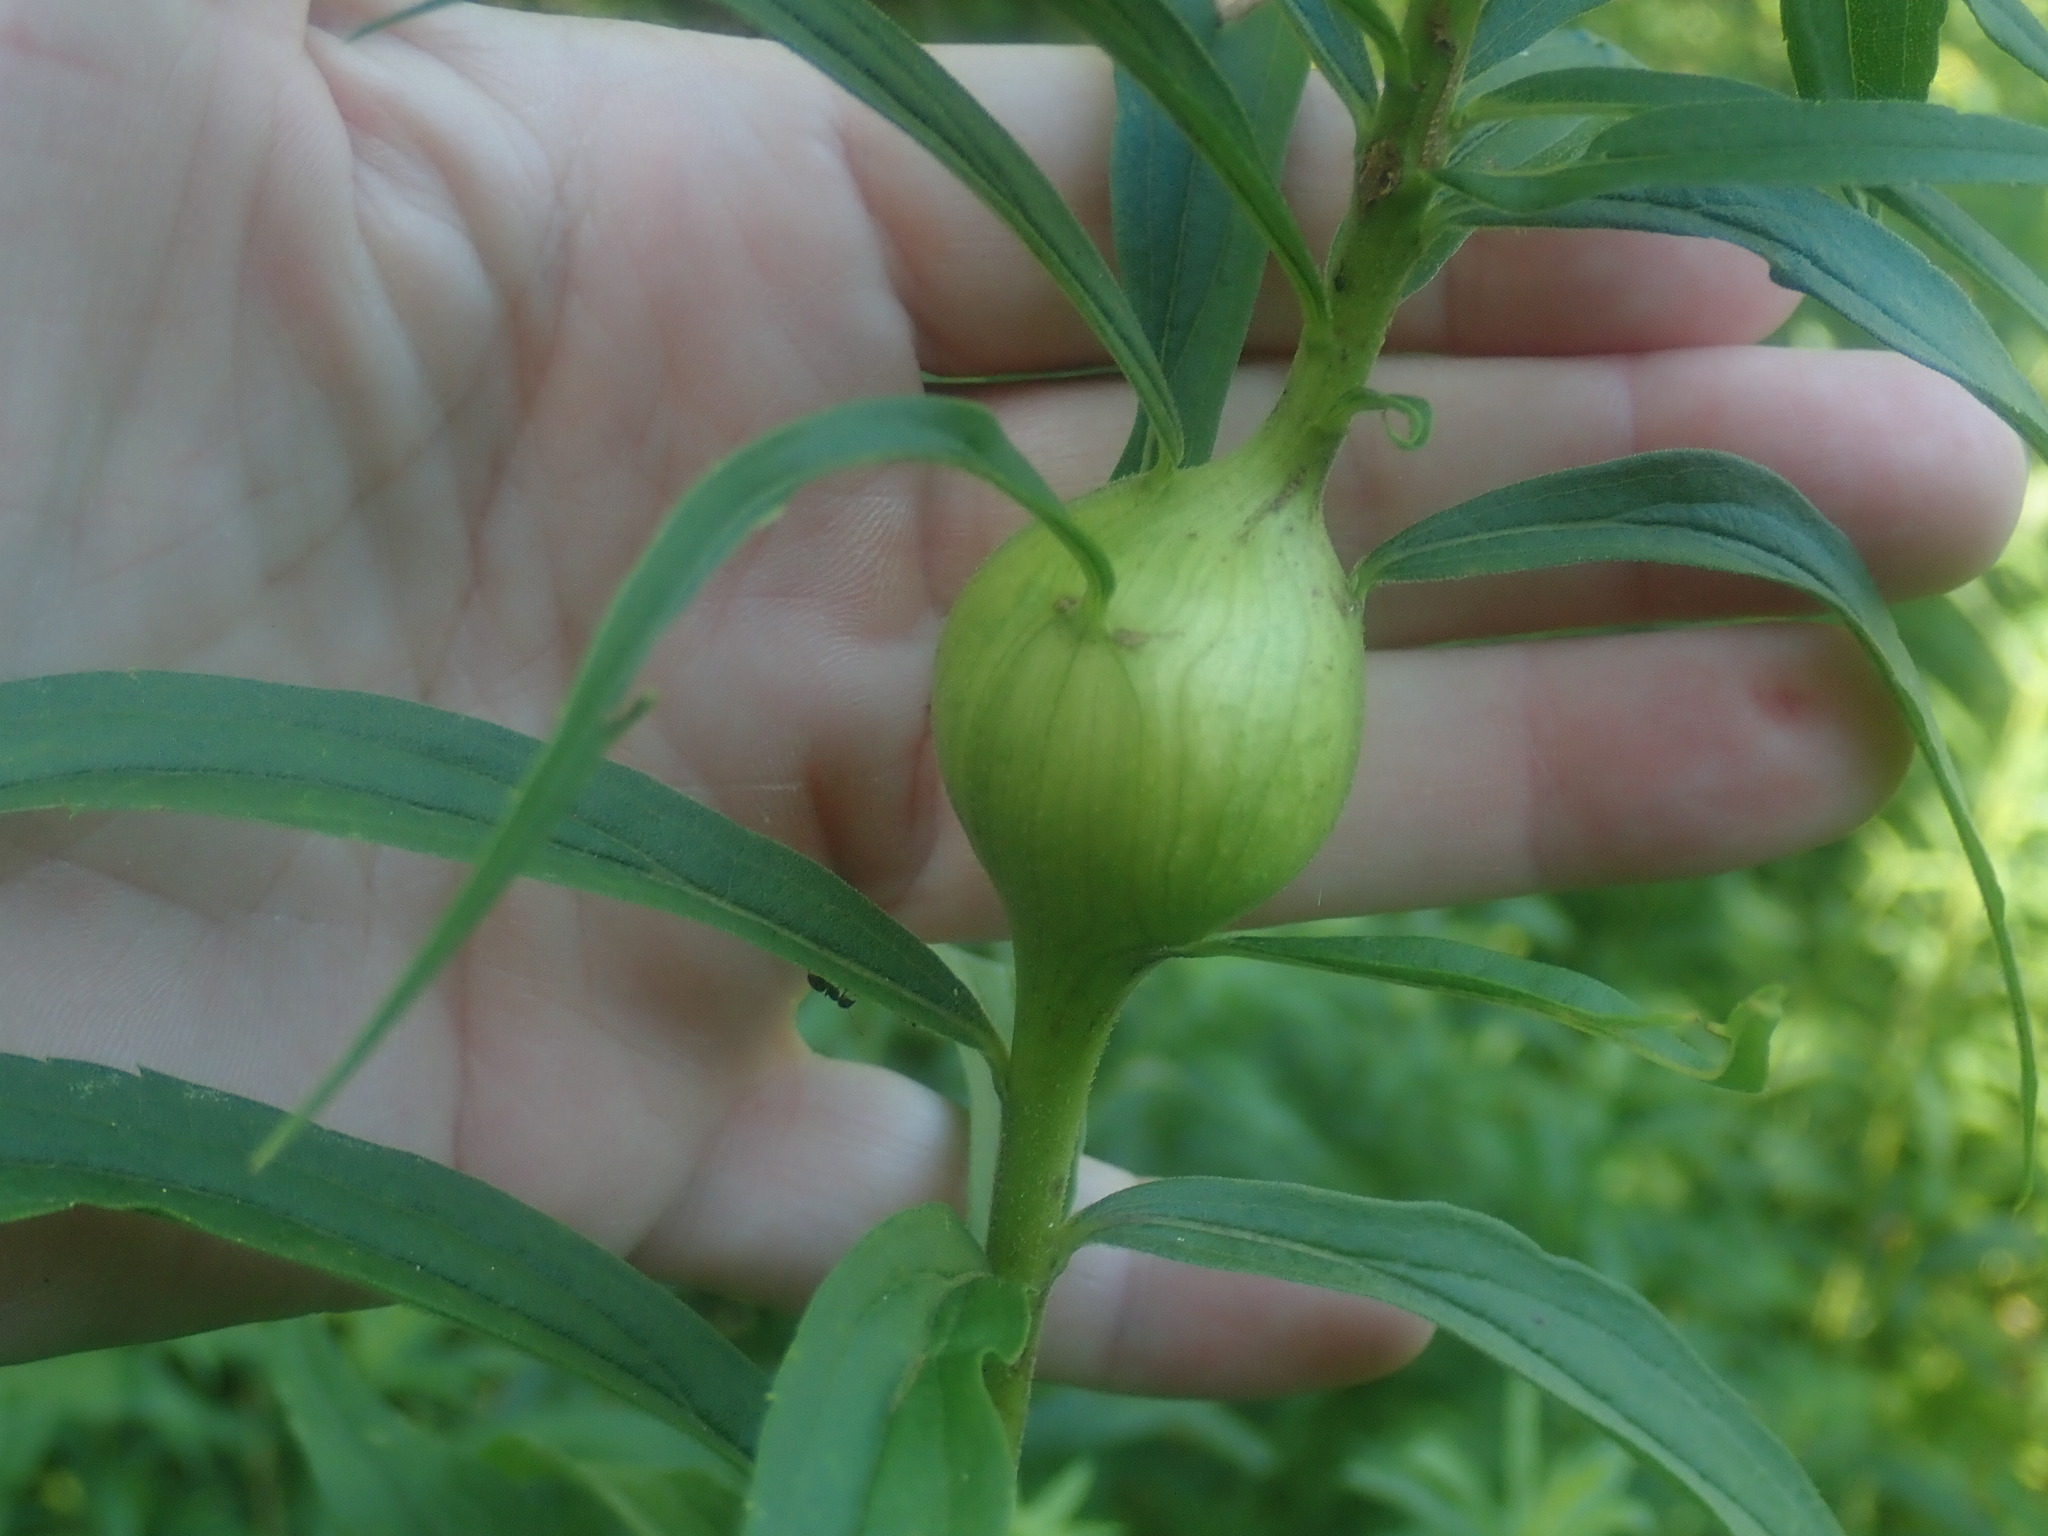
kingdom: Animalia
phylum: Arthropoda
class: Insecta
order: Diptera
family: Tephritidae
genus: Eurosta
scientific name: Eurosta solidaginis
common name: Goldenrod gall fly
